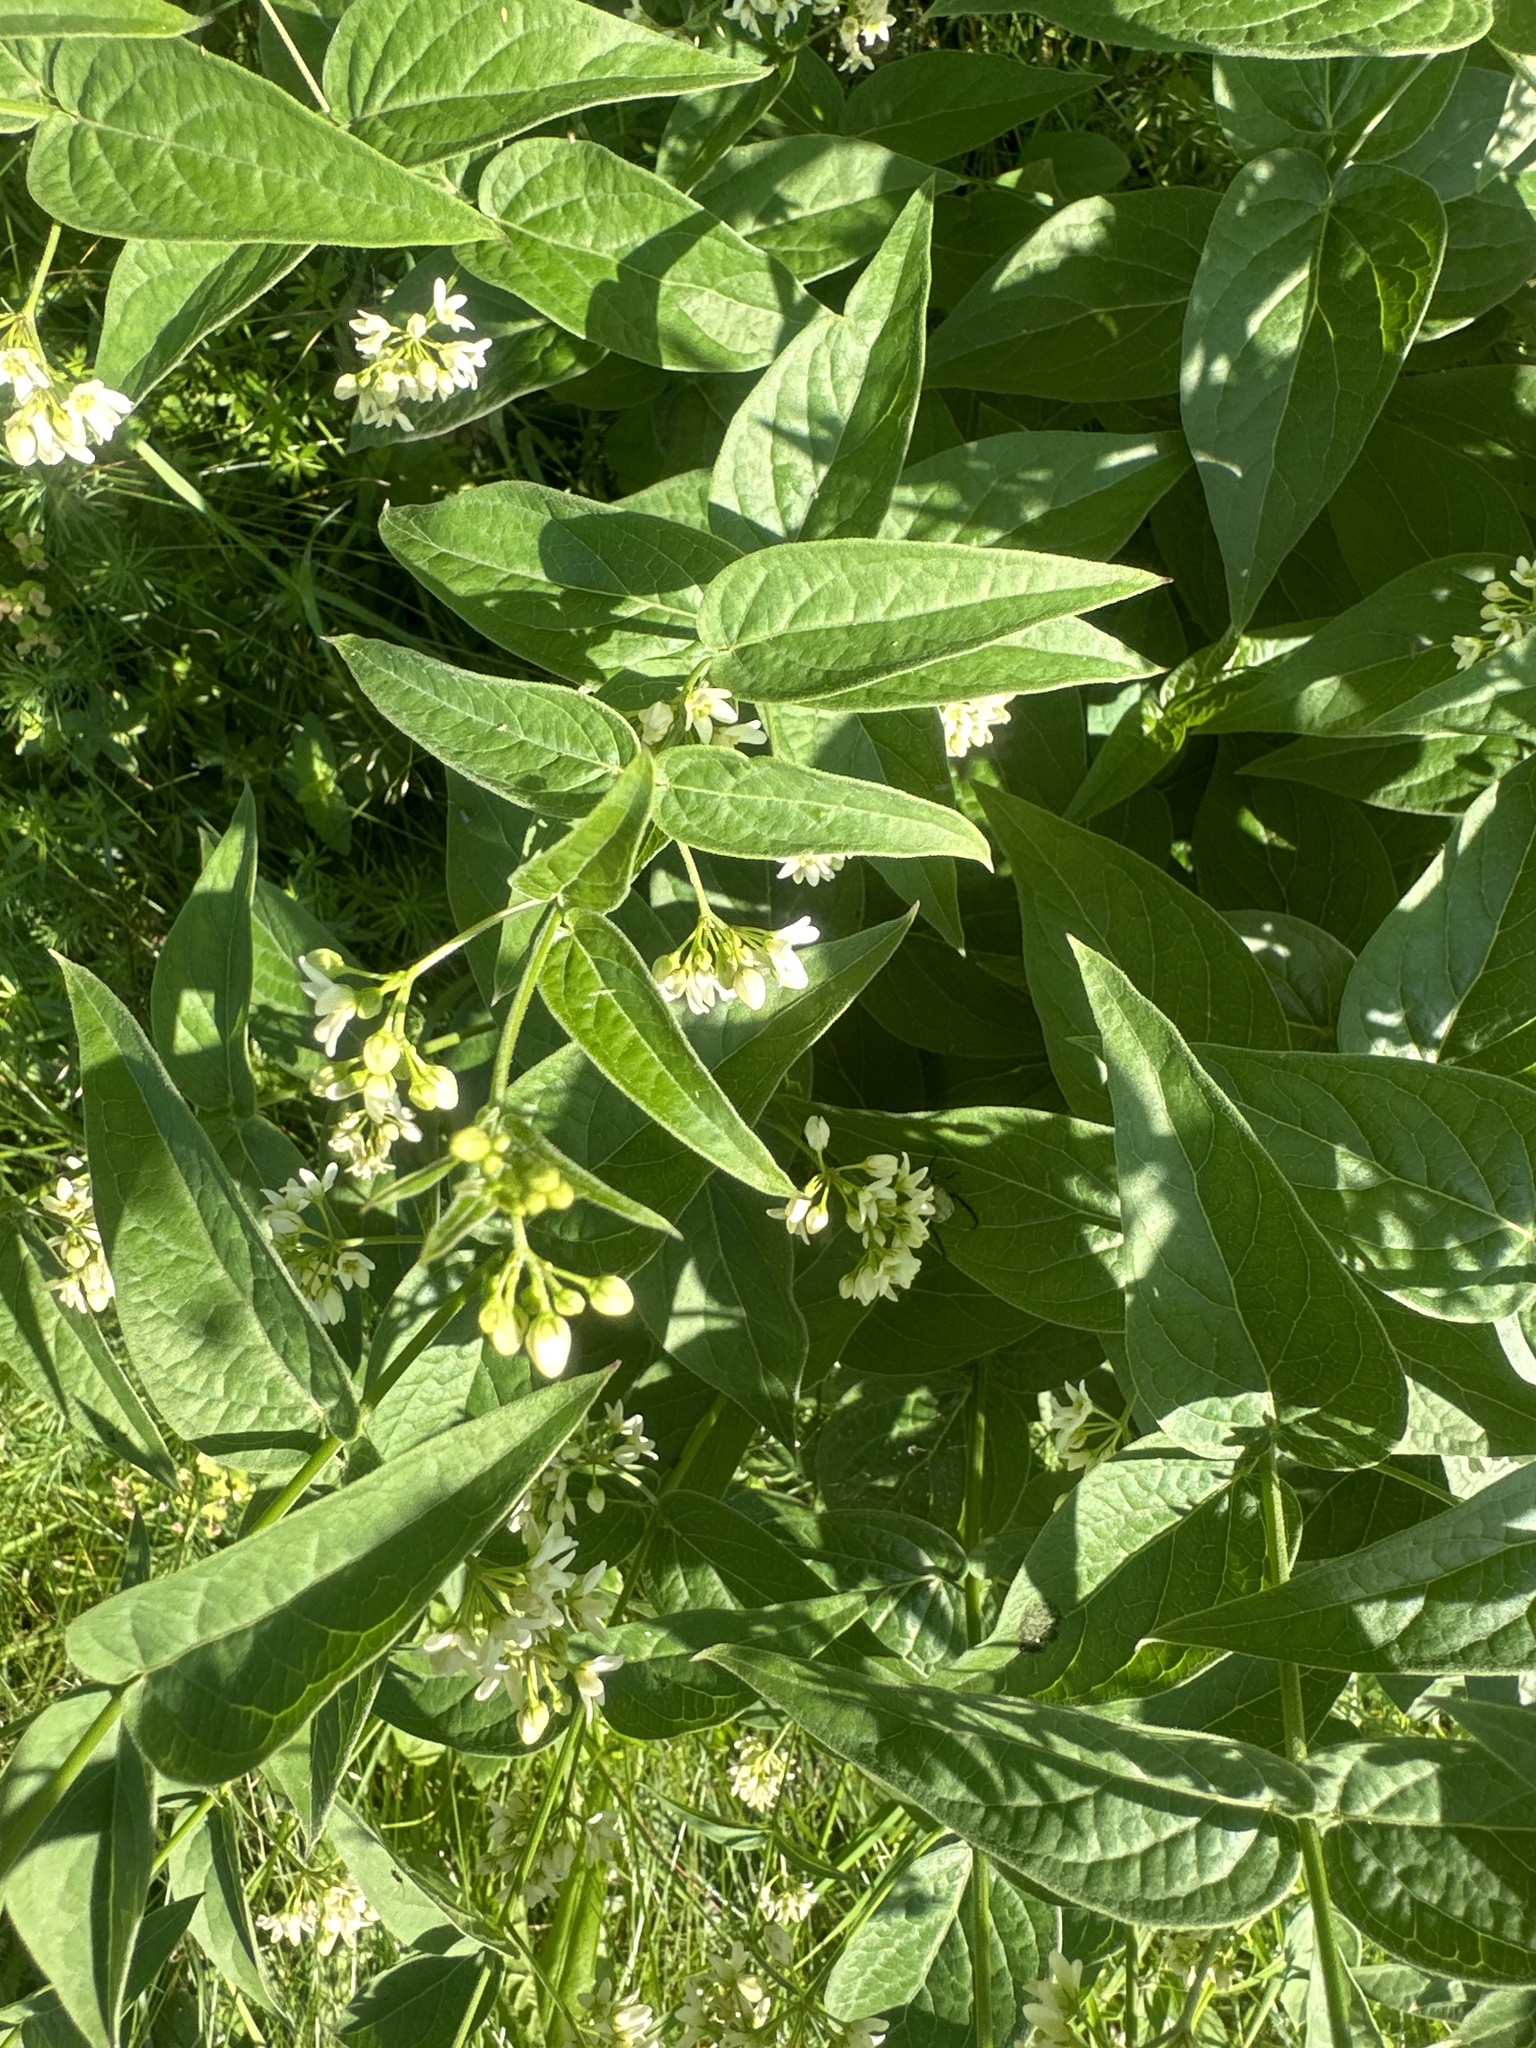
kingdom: Plantae
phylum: Tracheophyta
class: Magnoliopsida
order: Gentianales
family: Apocynaceae
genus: Vincetoxicum
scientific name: Vincetoxicum hirundinaria
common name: White swallowwort
